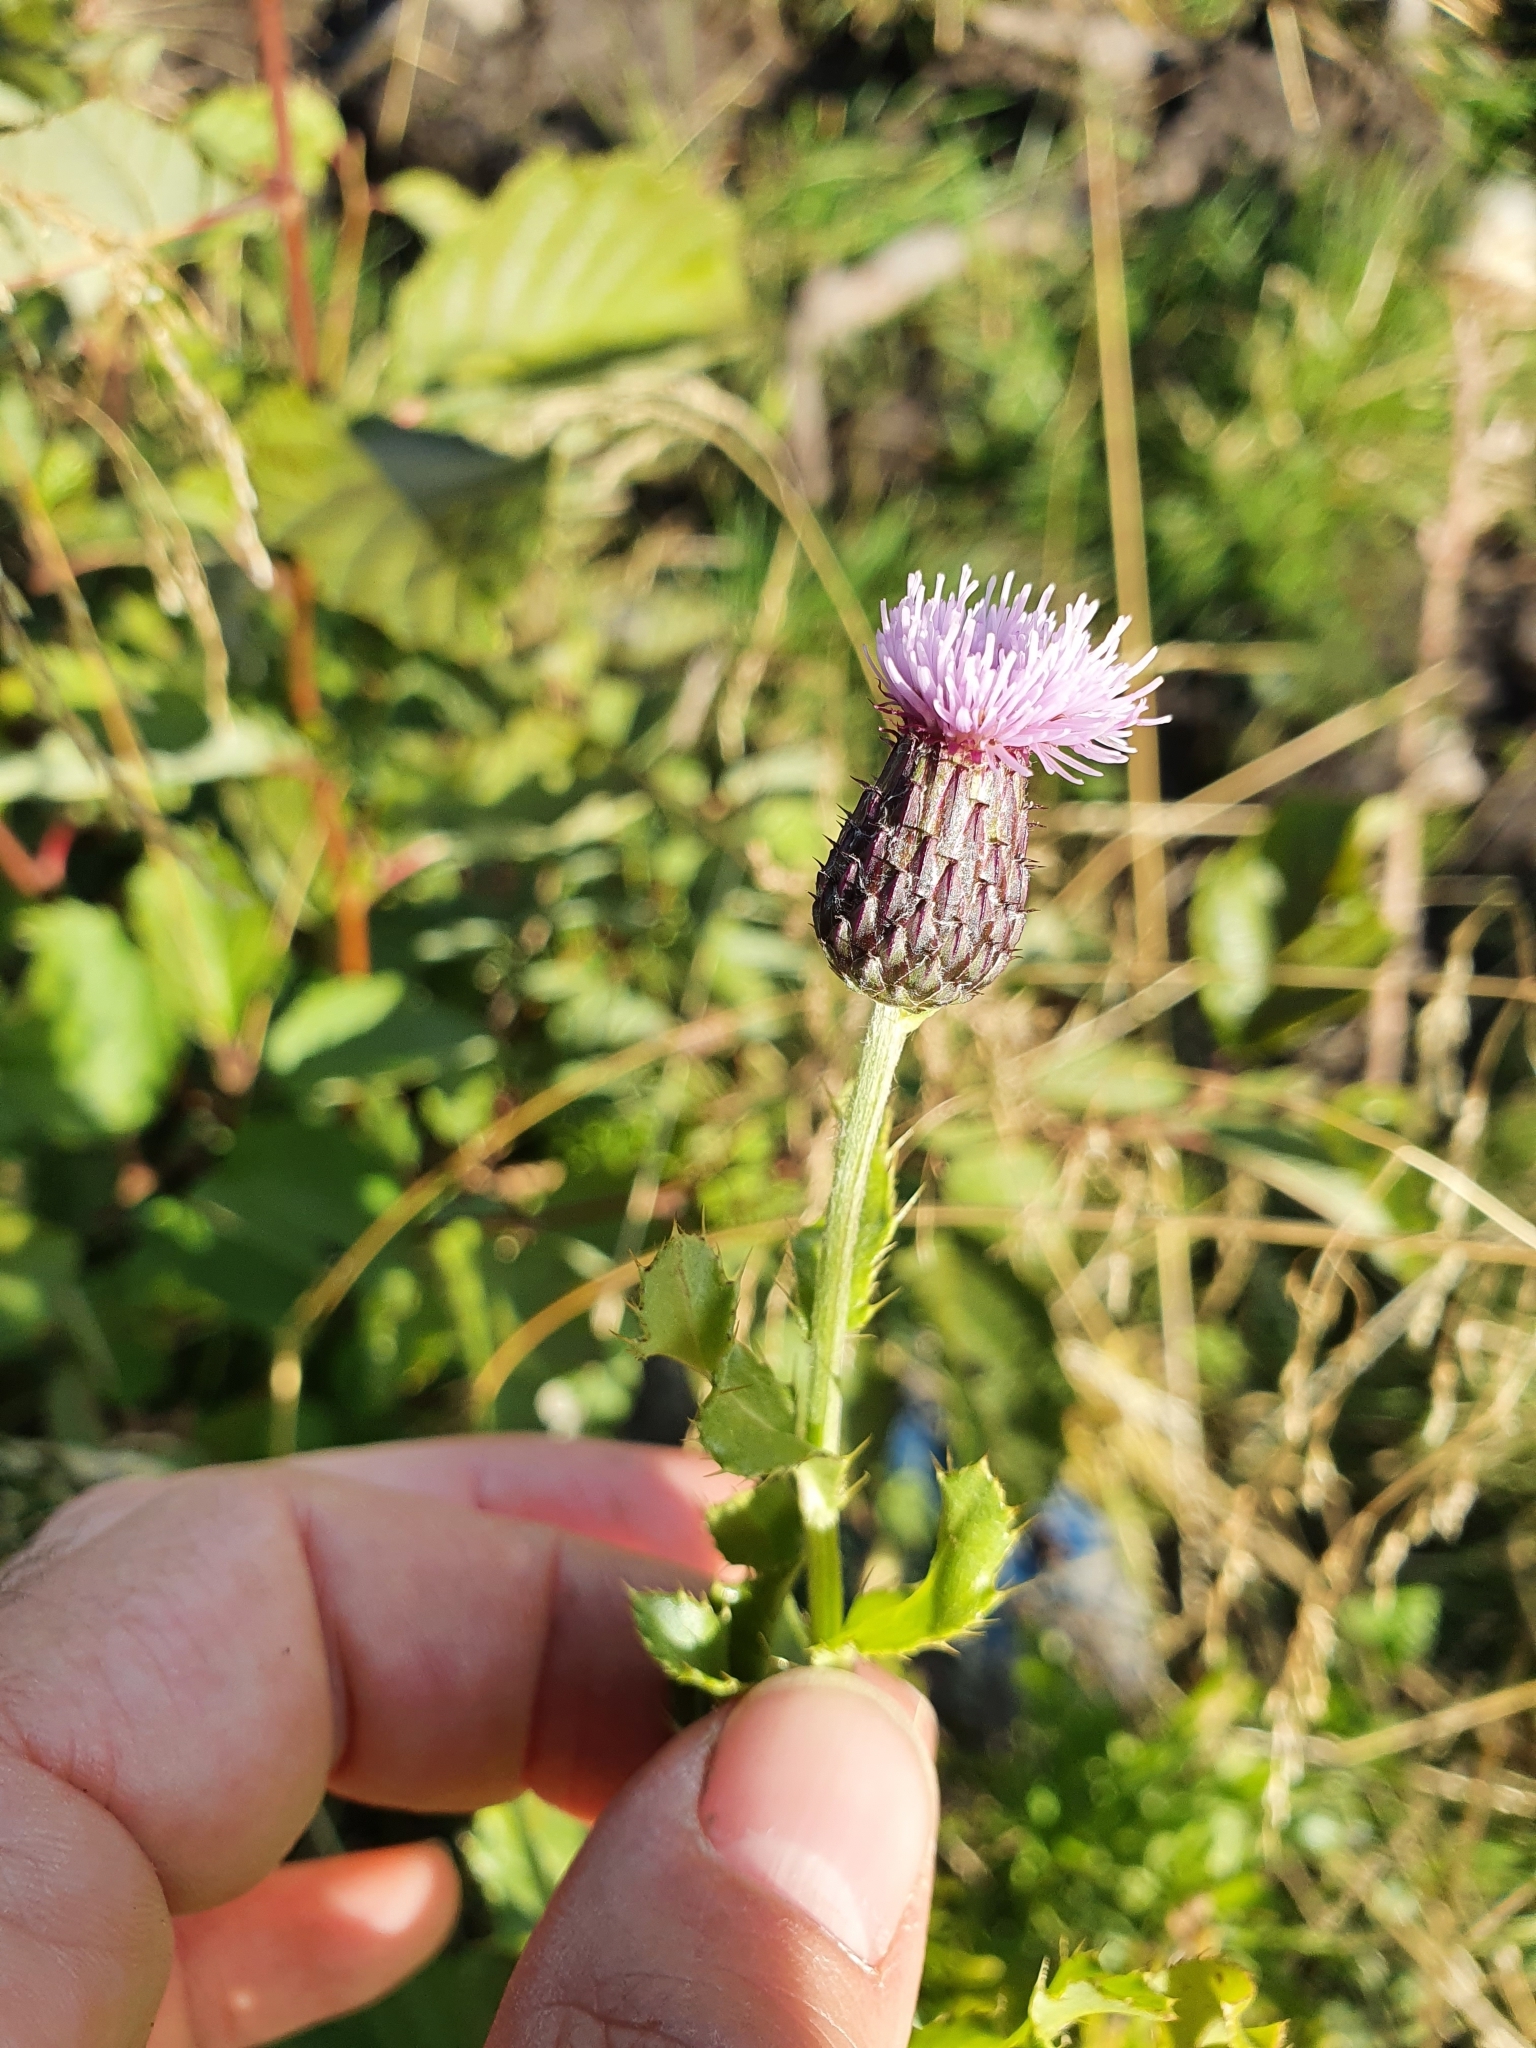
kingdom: Plantae
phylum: Tracheophyta
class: Magnoliopsida
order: Asterales
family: Asteraceae
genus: Cirsium
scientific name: Cirsium arvense
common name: Creeping thistle
